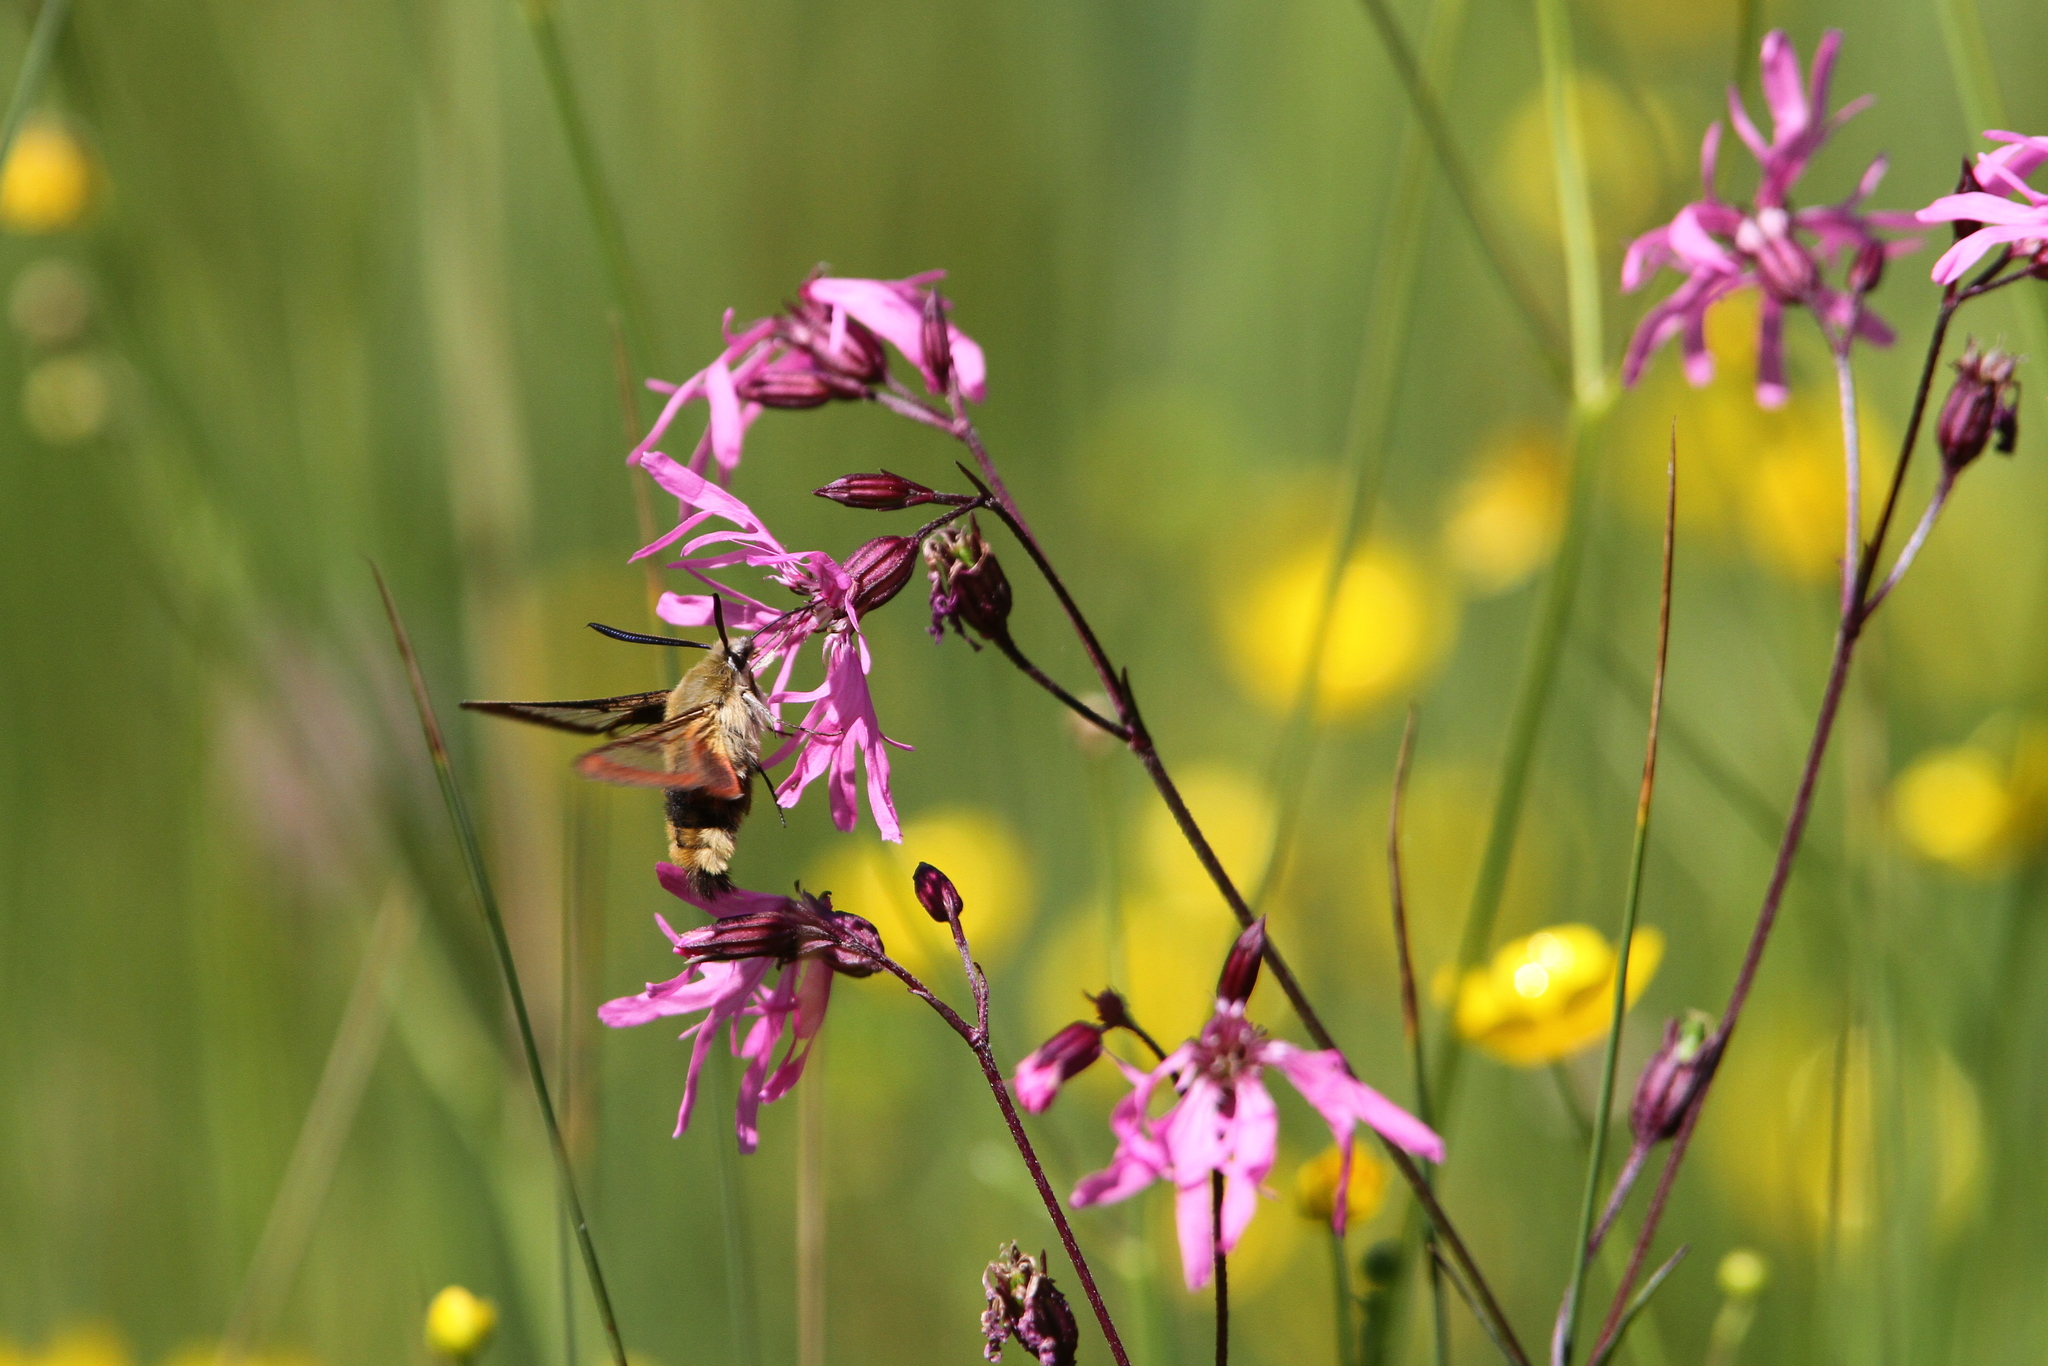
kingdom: Animalia
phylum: Arthropoda
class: Insecta
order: Lepidoptera
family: Sphingidae
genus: Hemaris
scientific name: Hemaris fuciformis
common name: Broad-bordered bee hawk-moth
